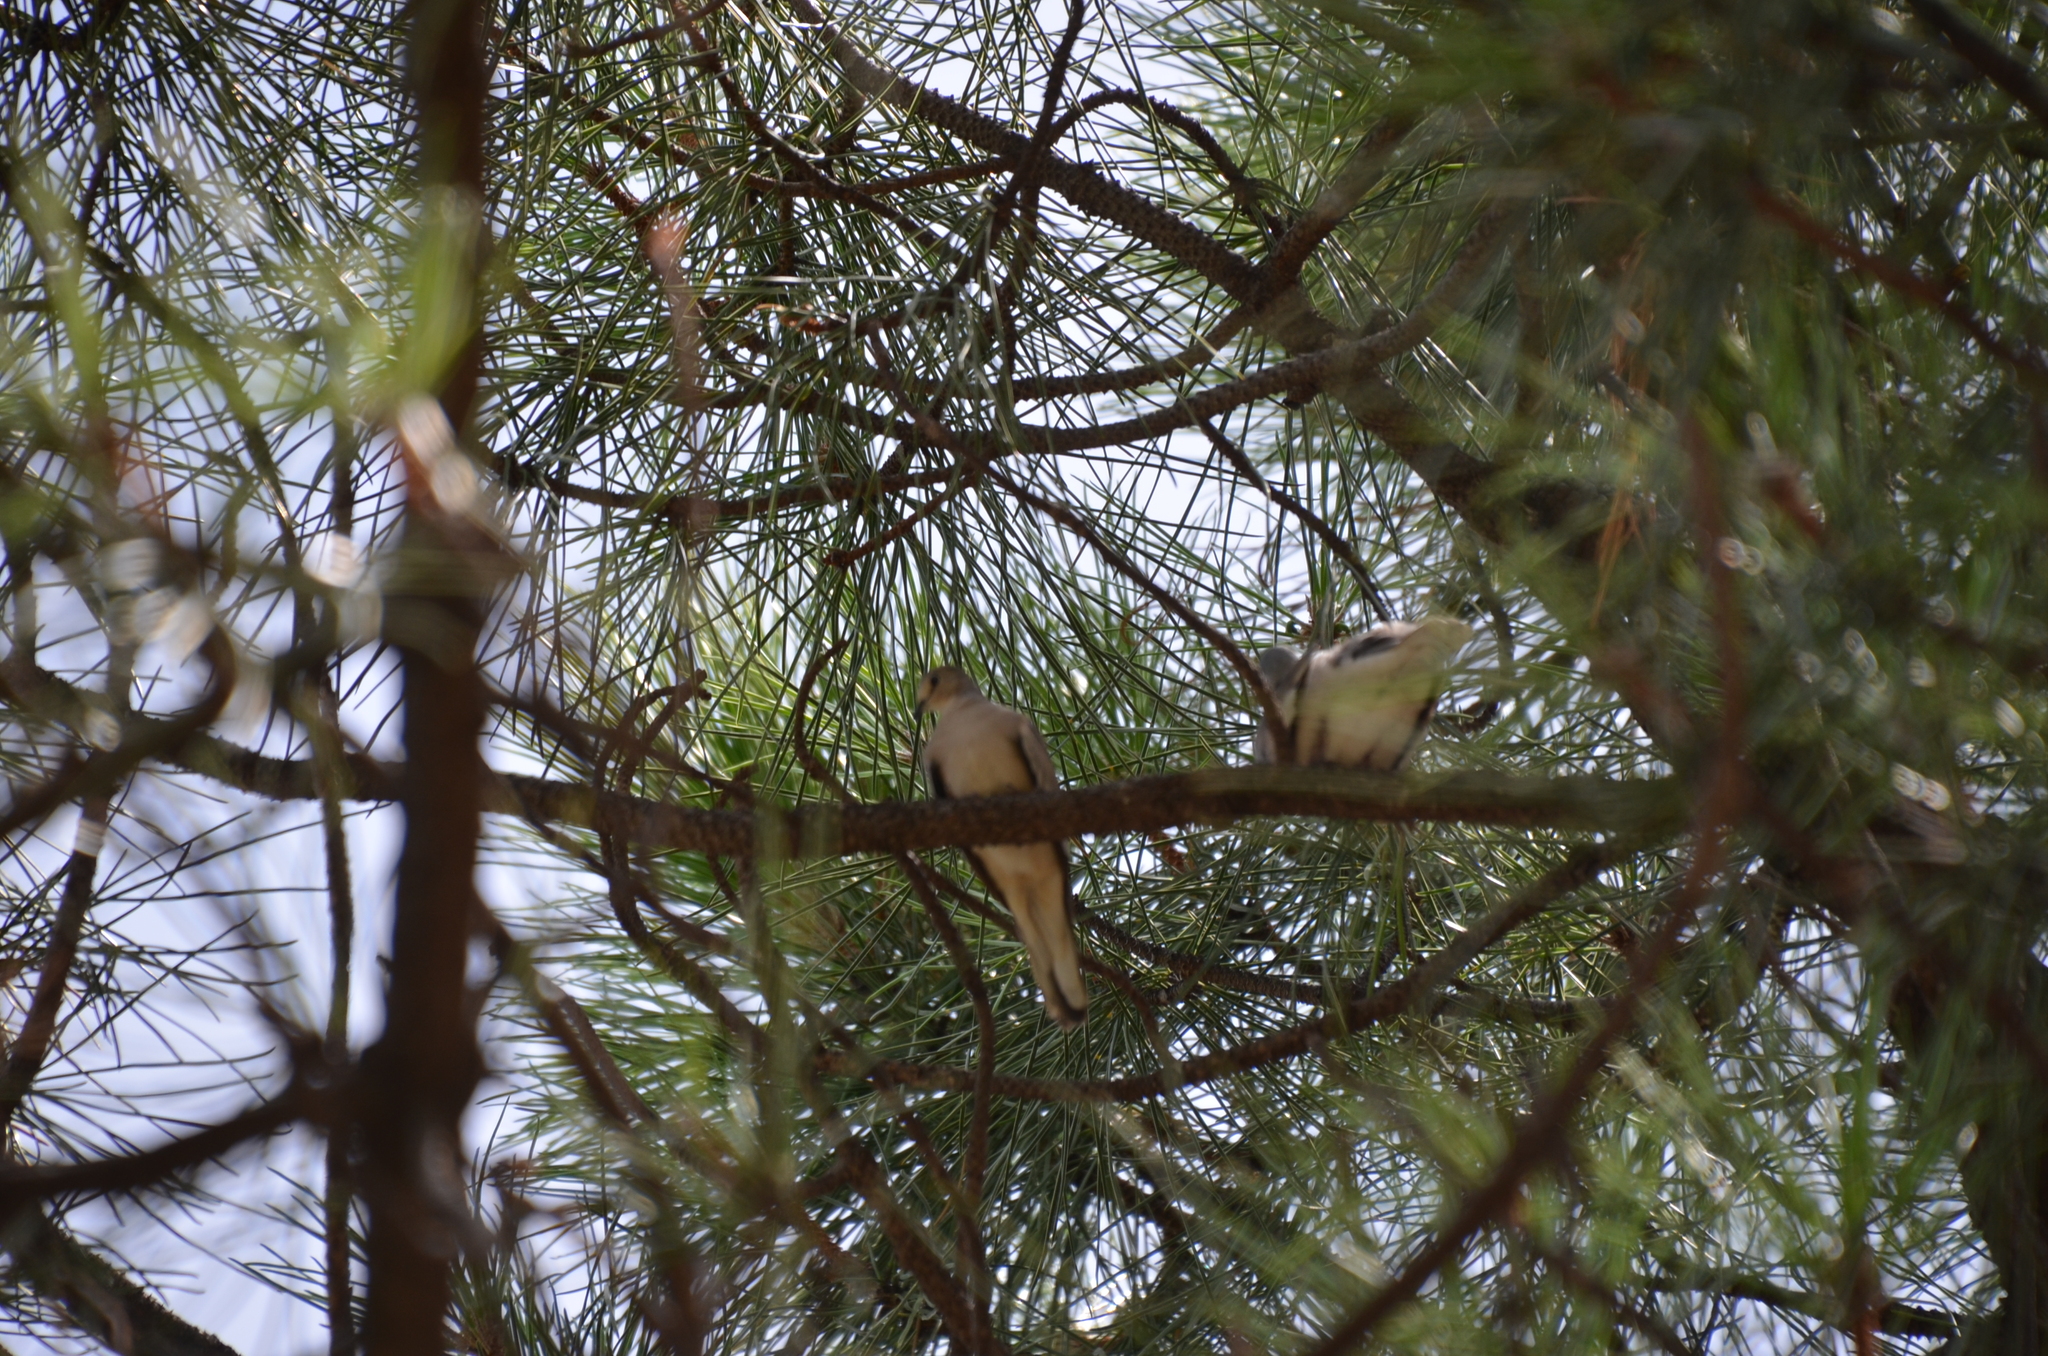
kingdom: Animalia
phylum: Chordata
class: Aves
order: Columbiformes
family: Columbidae
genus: Columbina
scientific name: Columbina picui
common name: Picui ground dove
